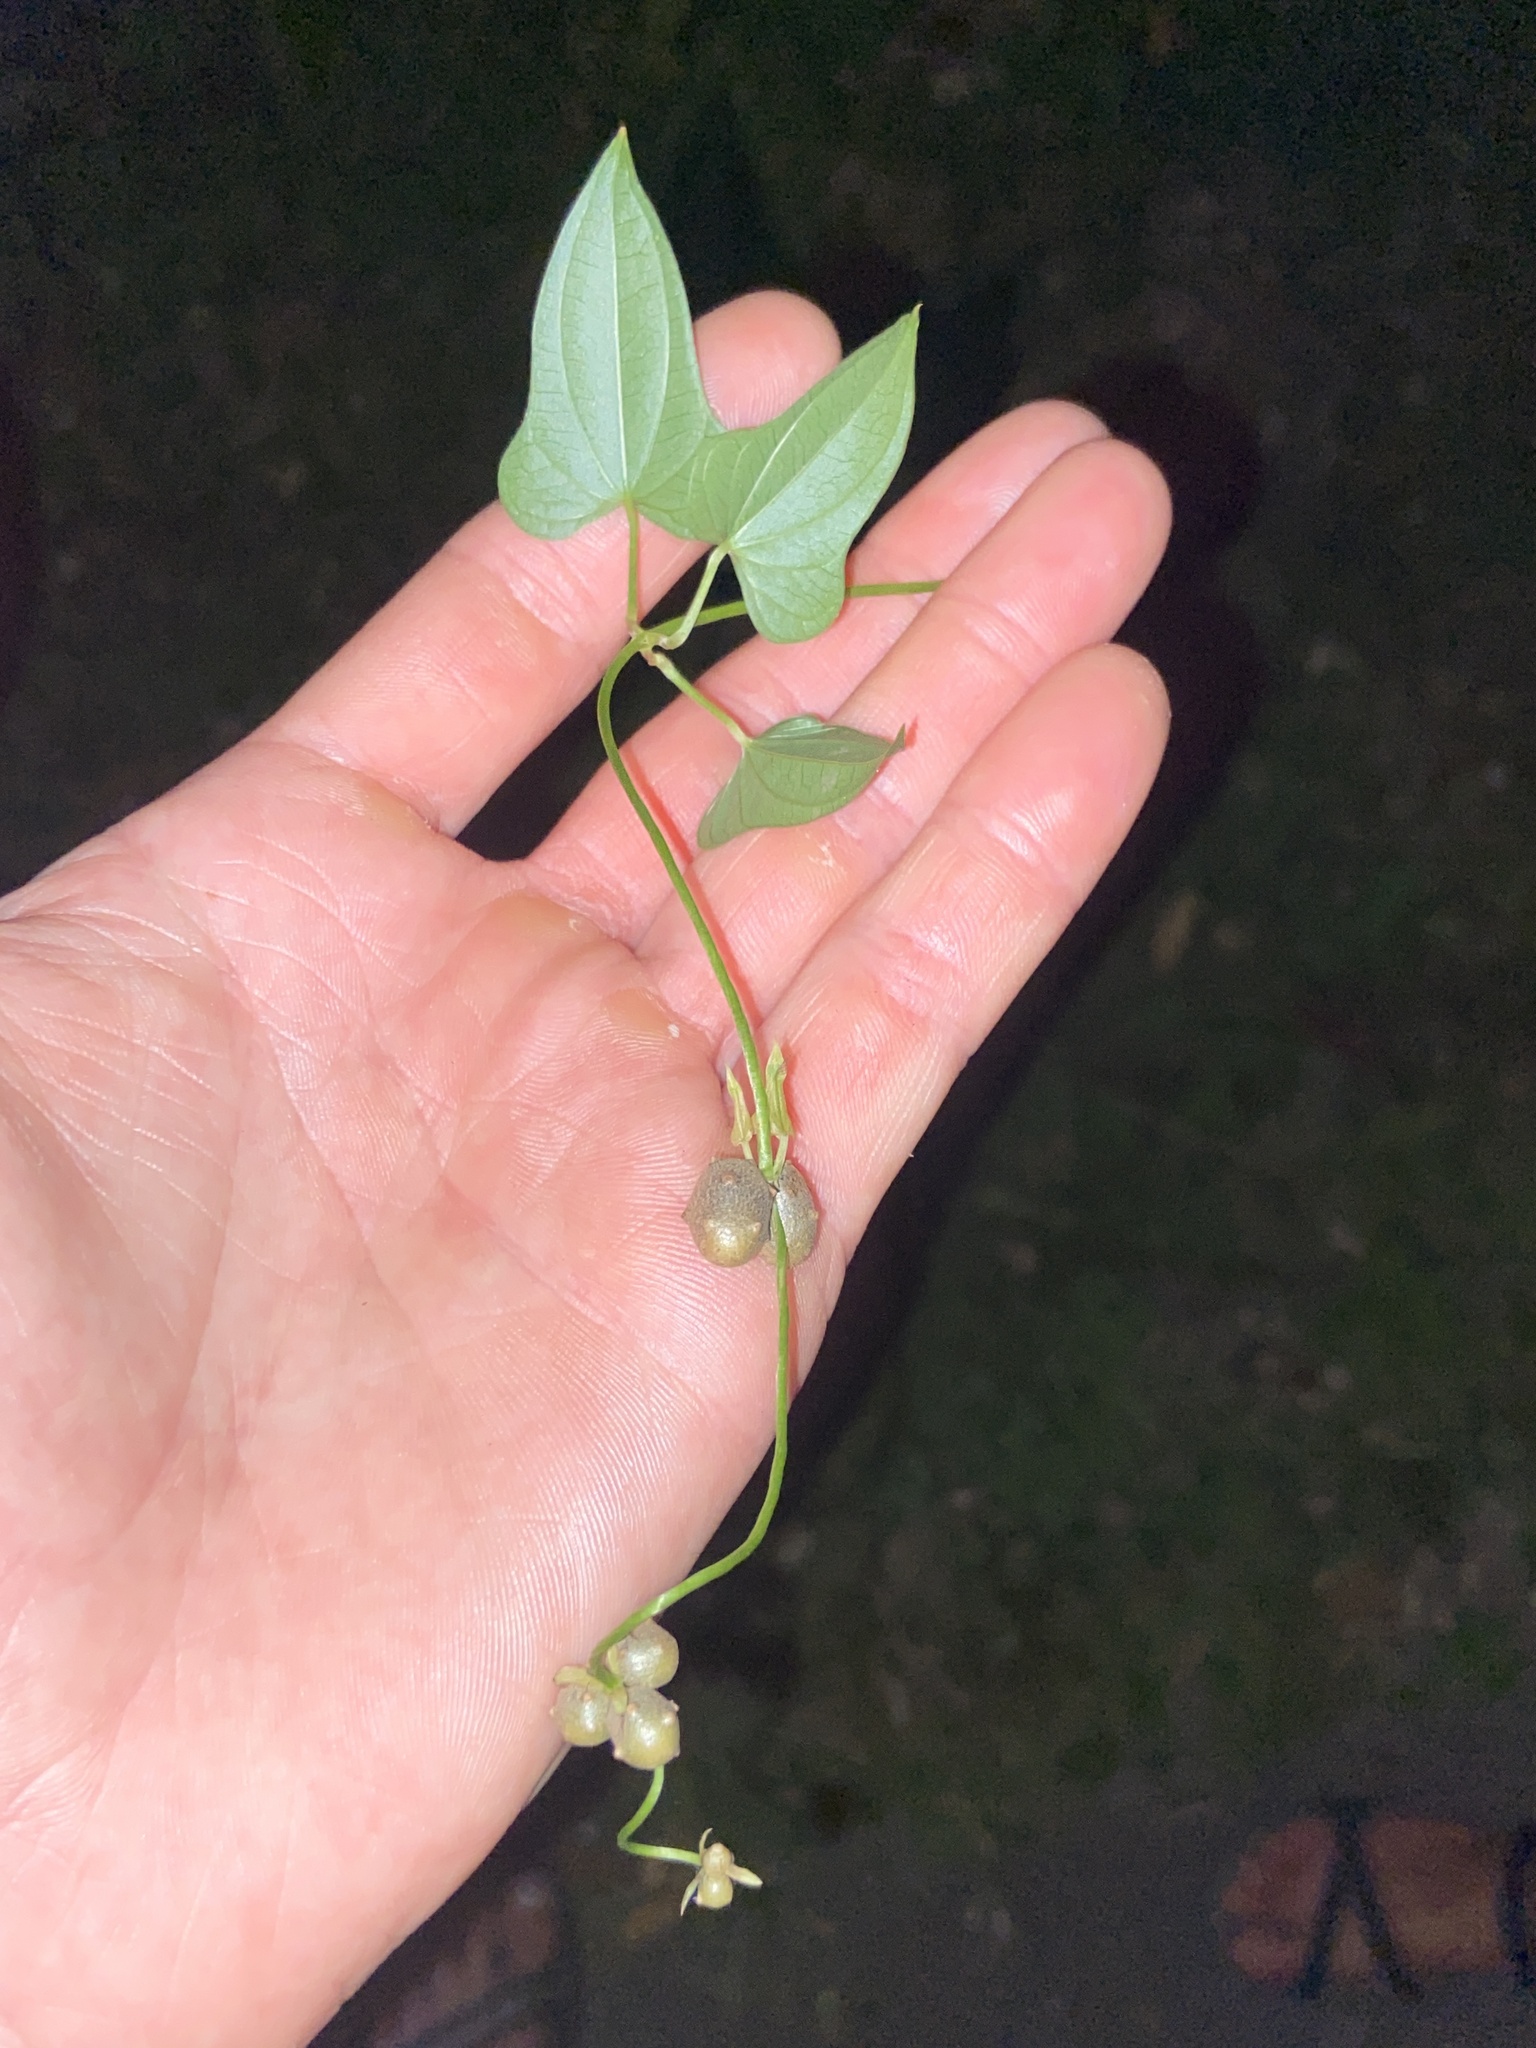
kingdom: Plantae
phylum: Tracheophyta
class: Liliopsida
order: Dioscoreales
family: Dioscoreaceae
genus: Dioscorea
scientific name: Dioscorea polystachya
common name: Chinese yam
